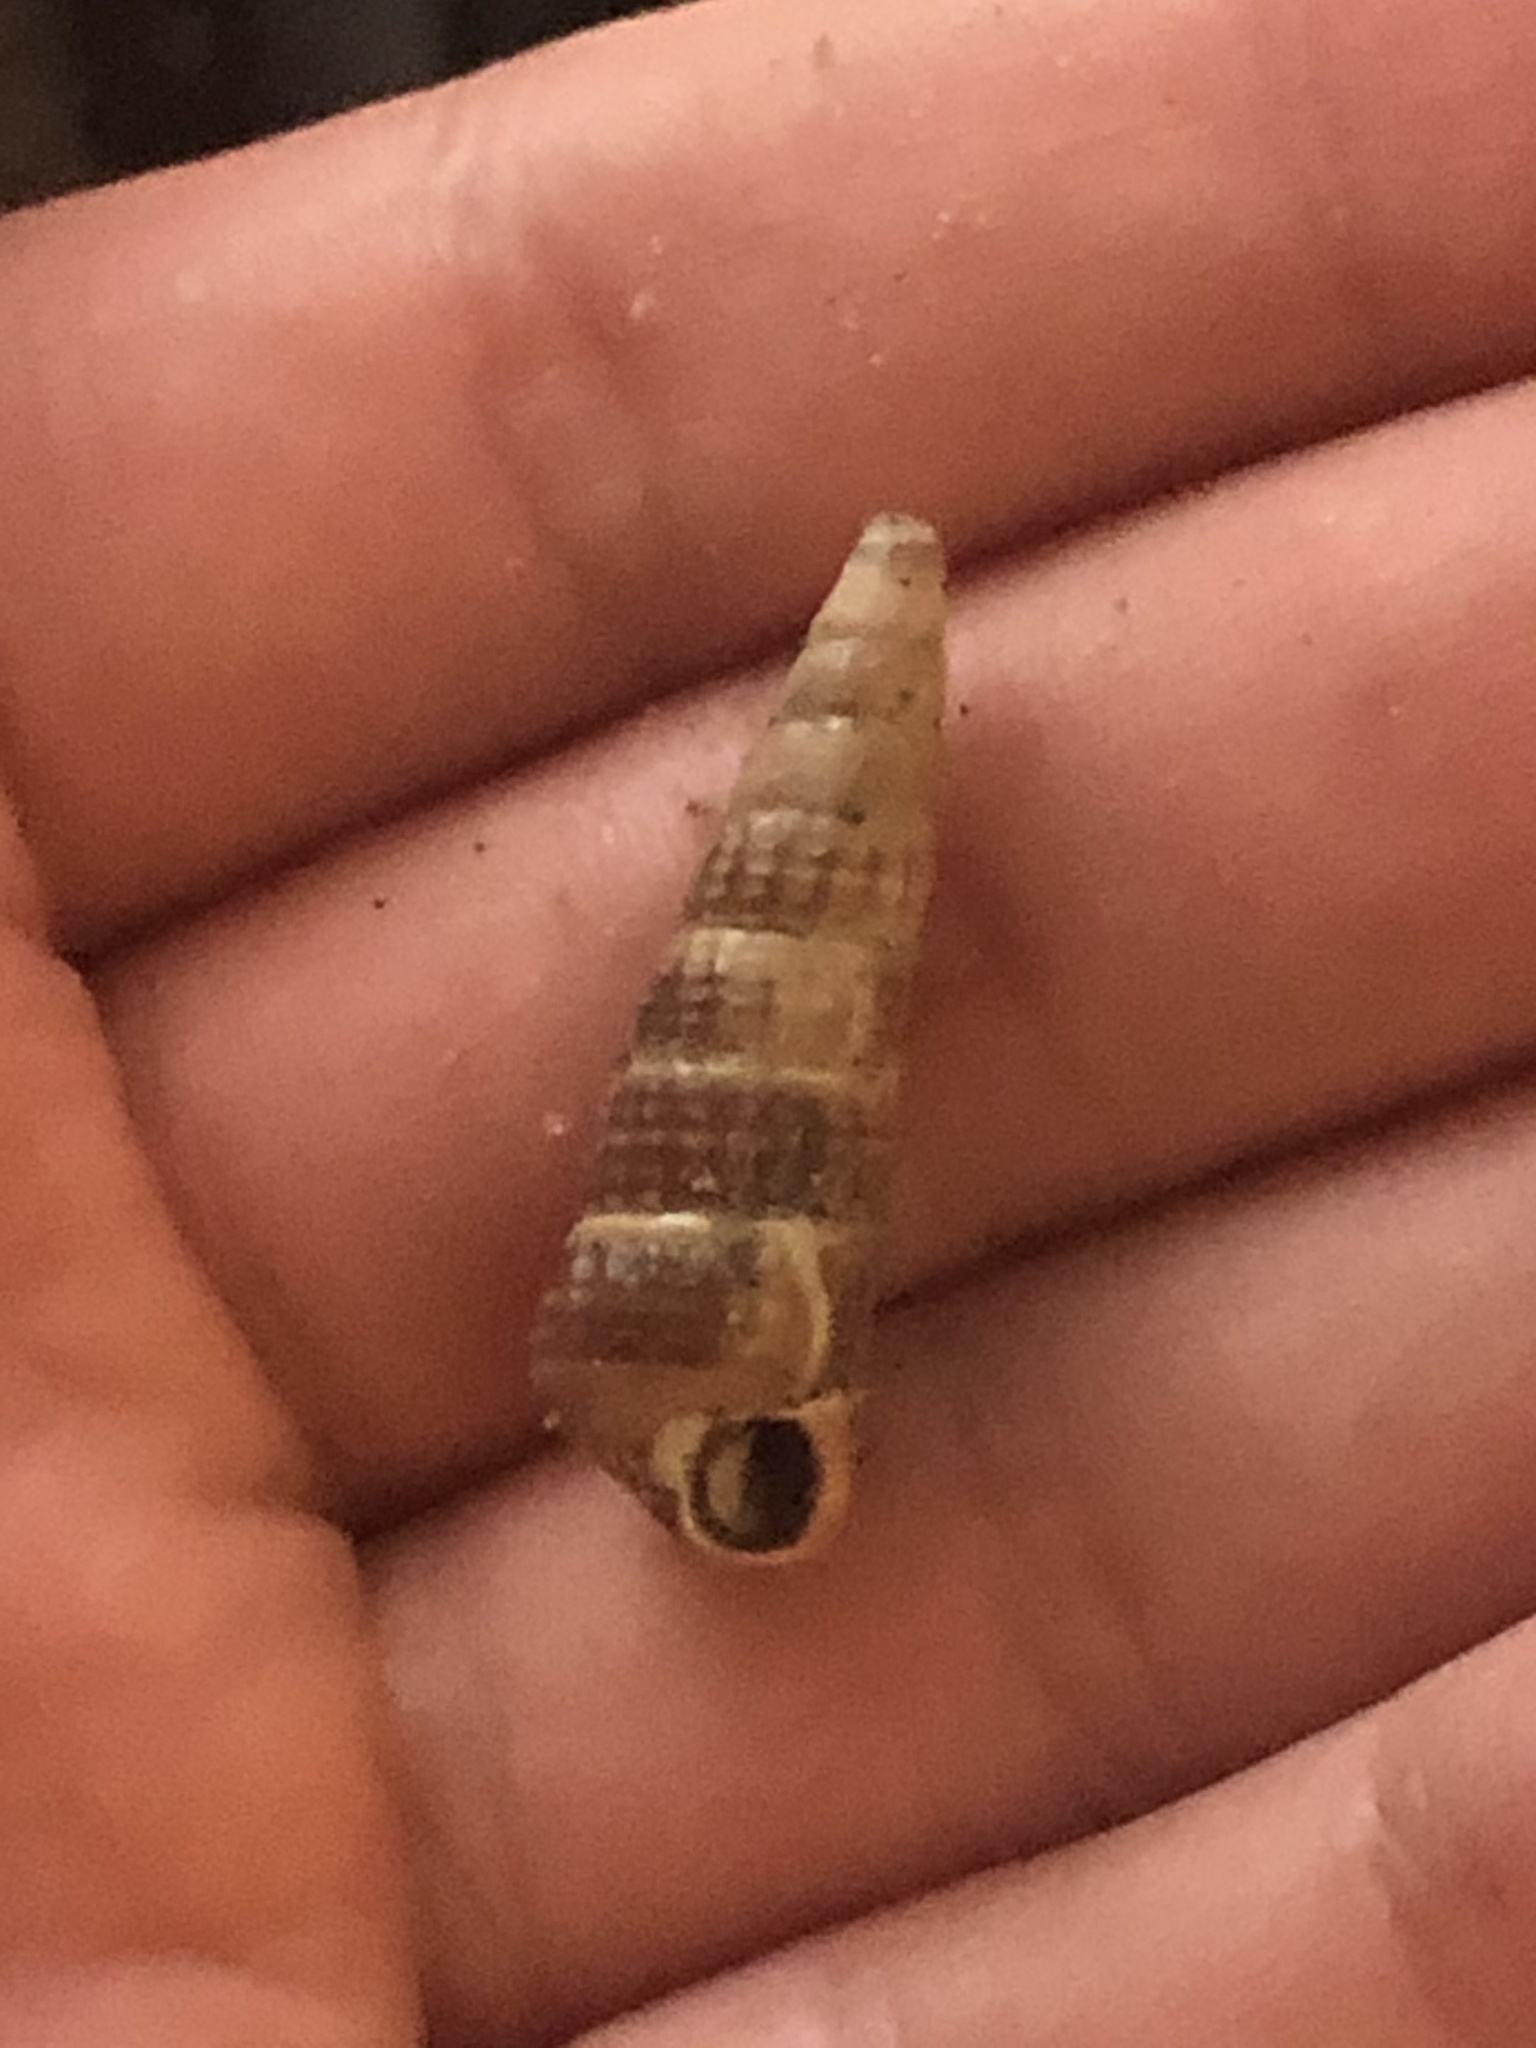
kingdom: Animalia
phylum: Mollusca
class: Gastropoda
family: Potamididae
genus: Cerithideopsis
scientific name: Cerithideopsis californica
